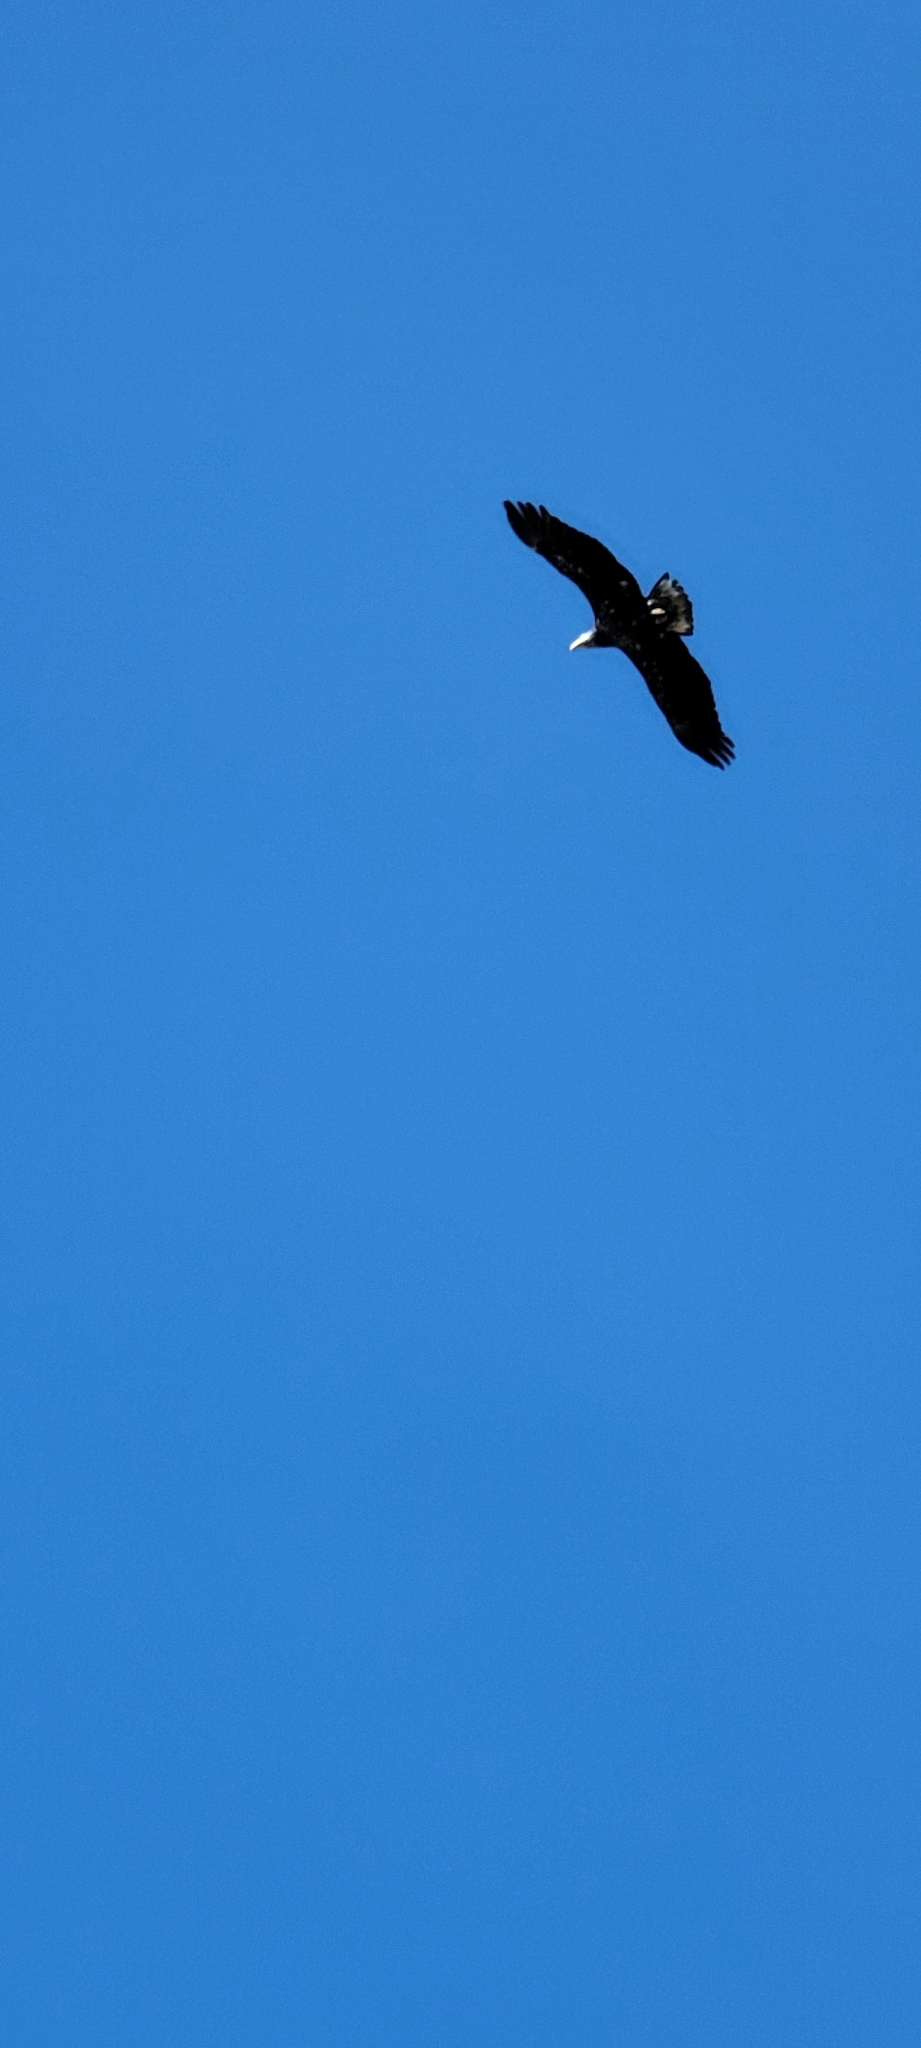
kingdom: Animalia
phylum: Chordata
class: Aves
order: Accipitriformes
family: Accipitridae
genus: Haliaeetus
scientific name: Haliaeetus leucocephalus
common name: Bald eagle
